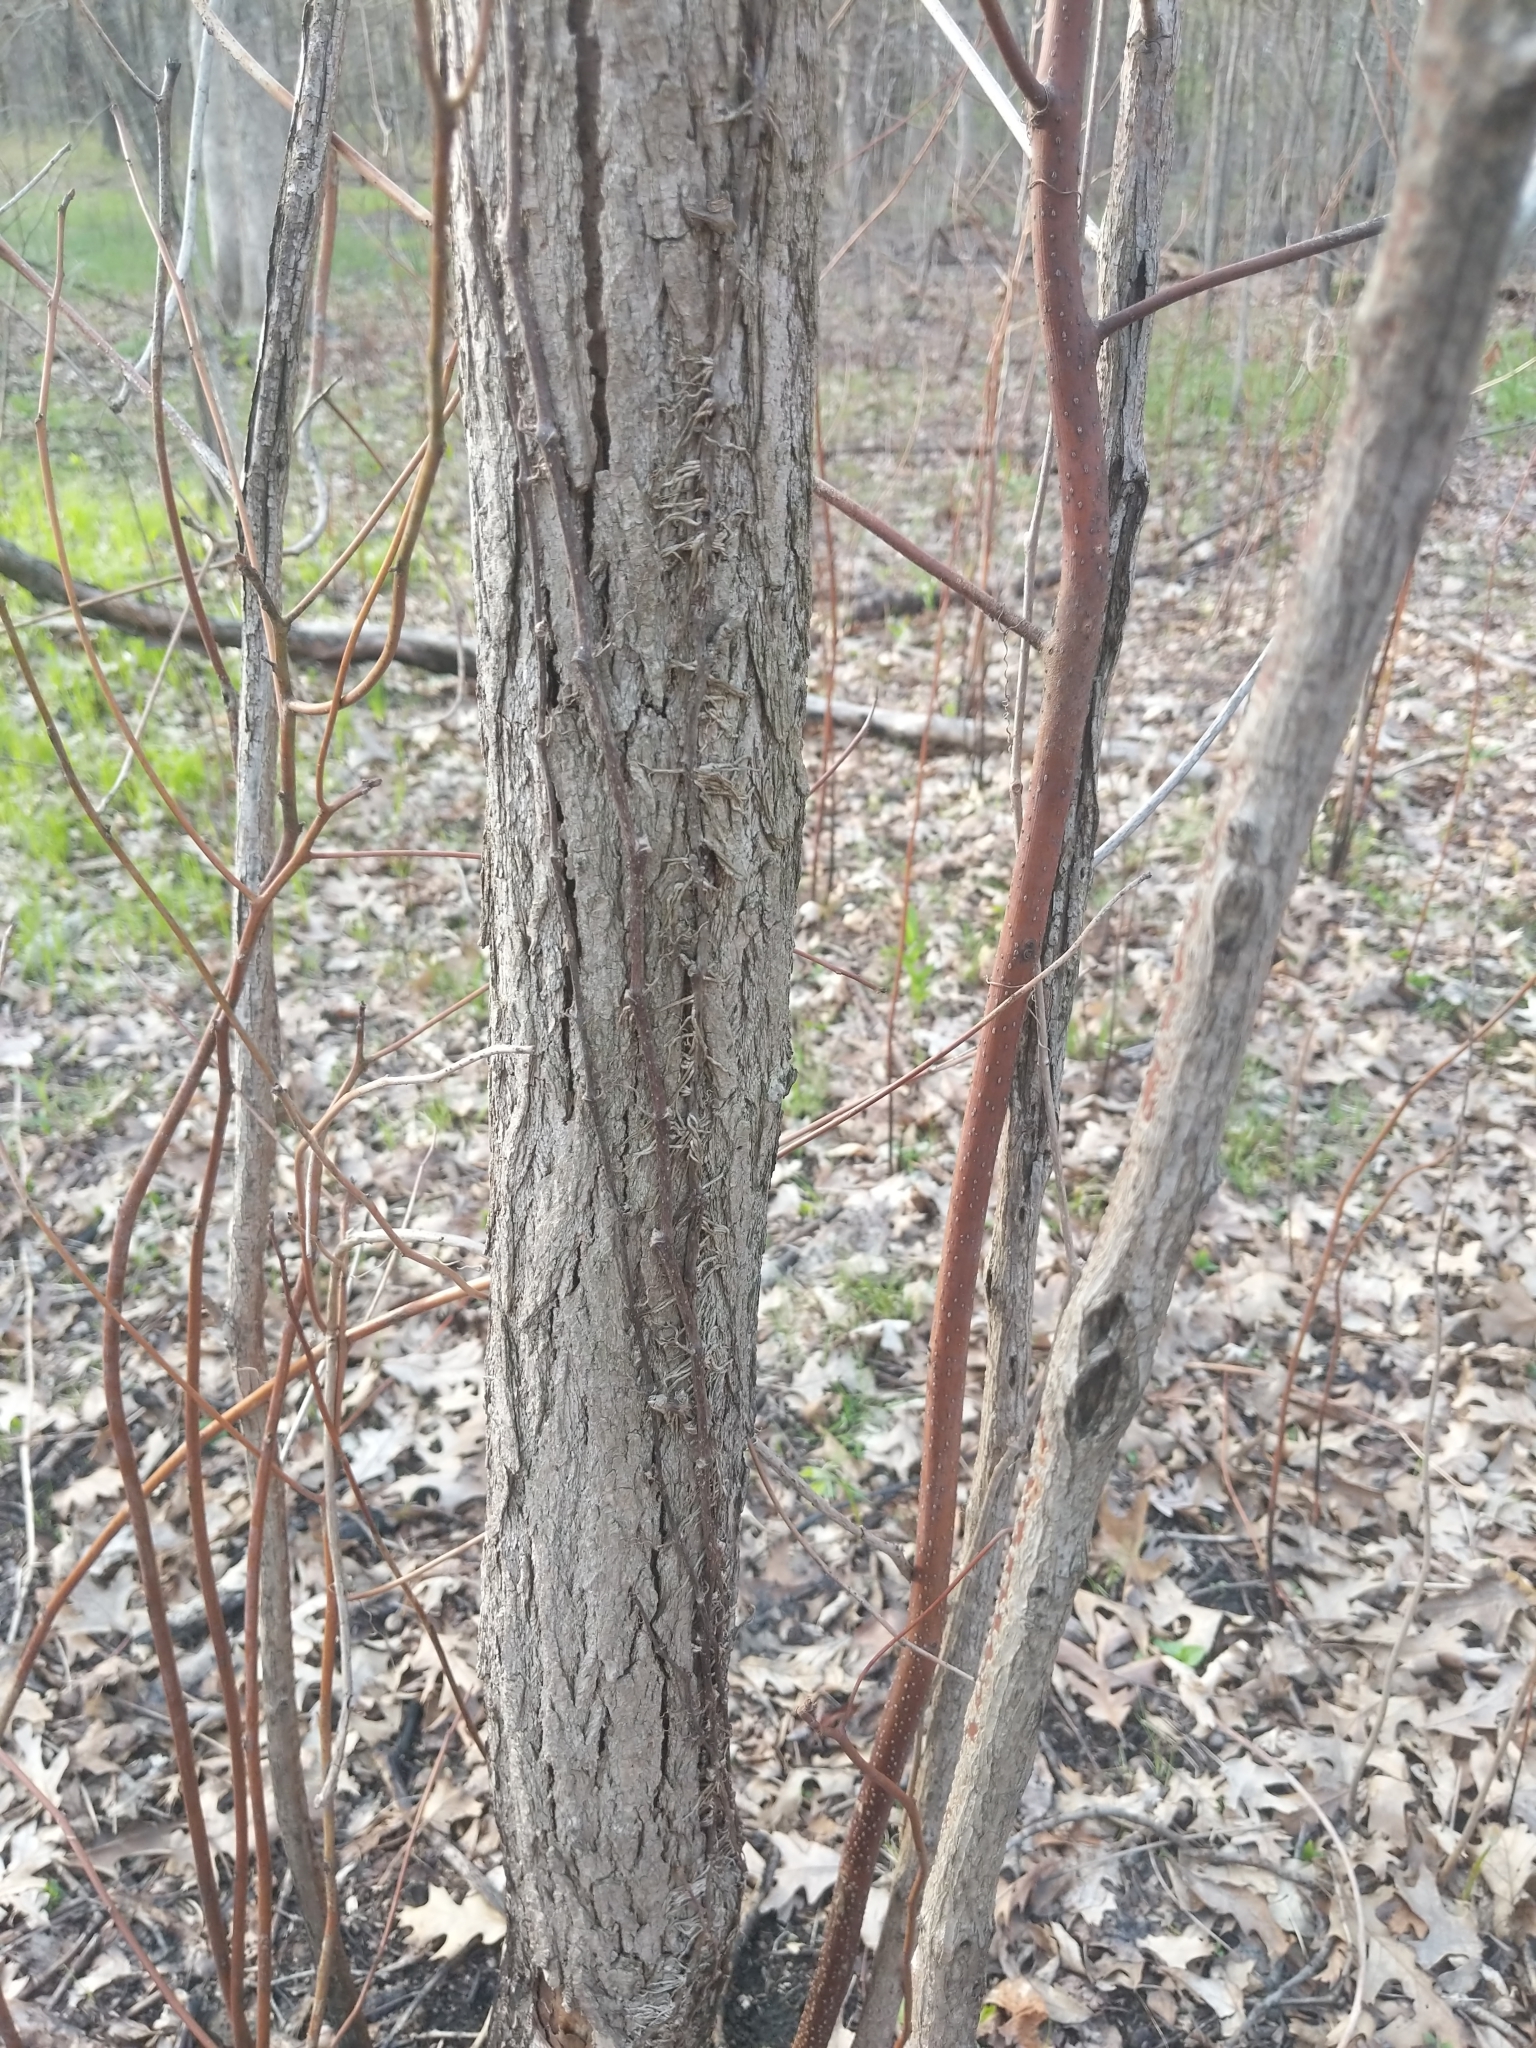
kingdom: Plantae
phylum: Tracheophyta
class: Magnoliopsida
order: Laurales
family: Lauraceae
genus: Sassafras
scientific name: Sassafras albidum
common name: Sassafras
